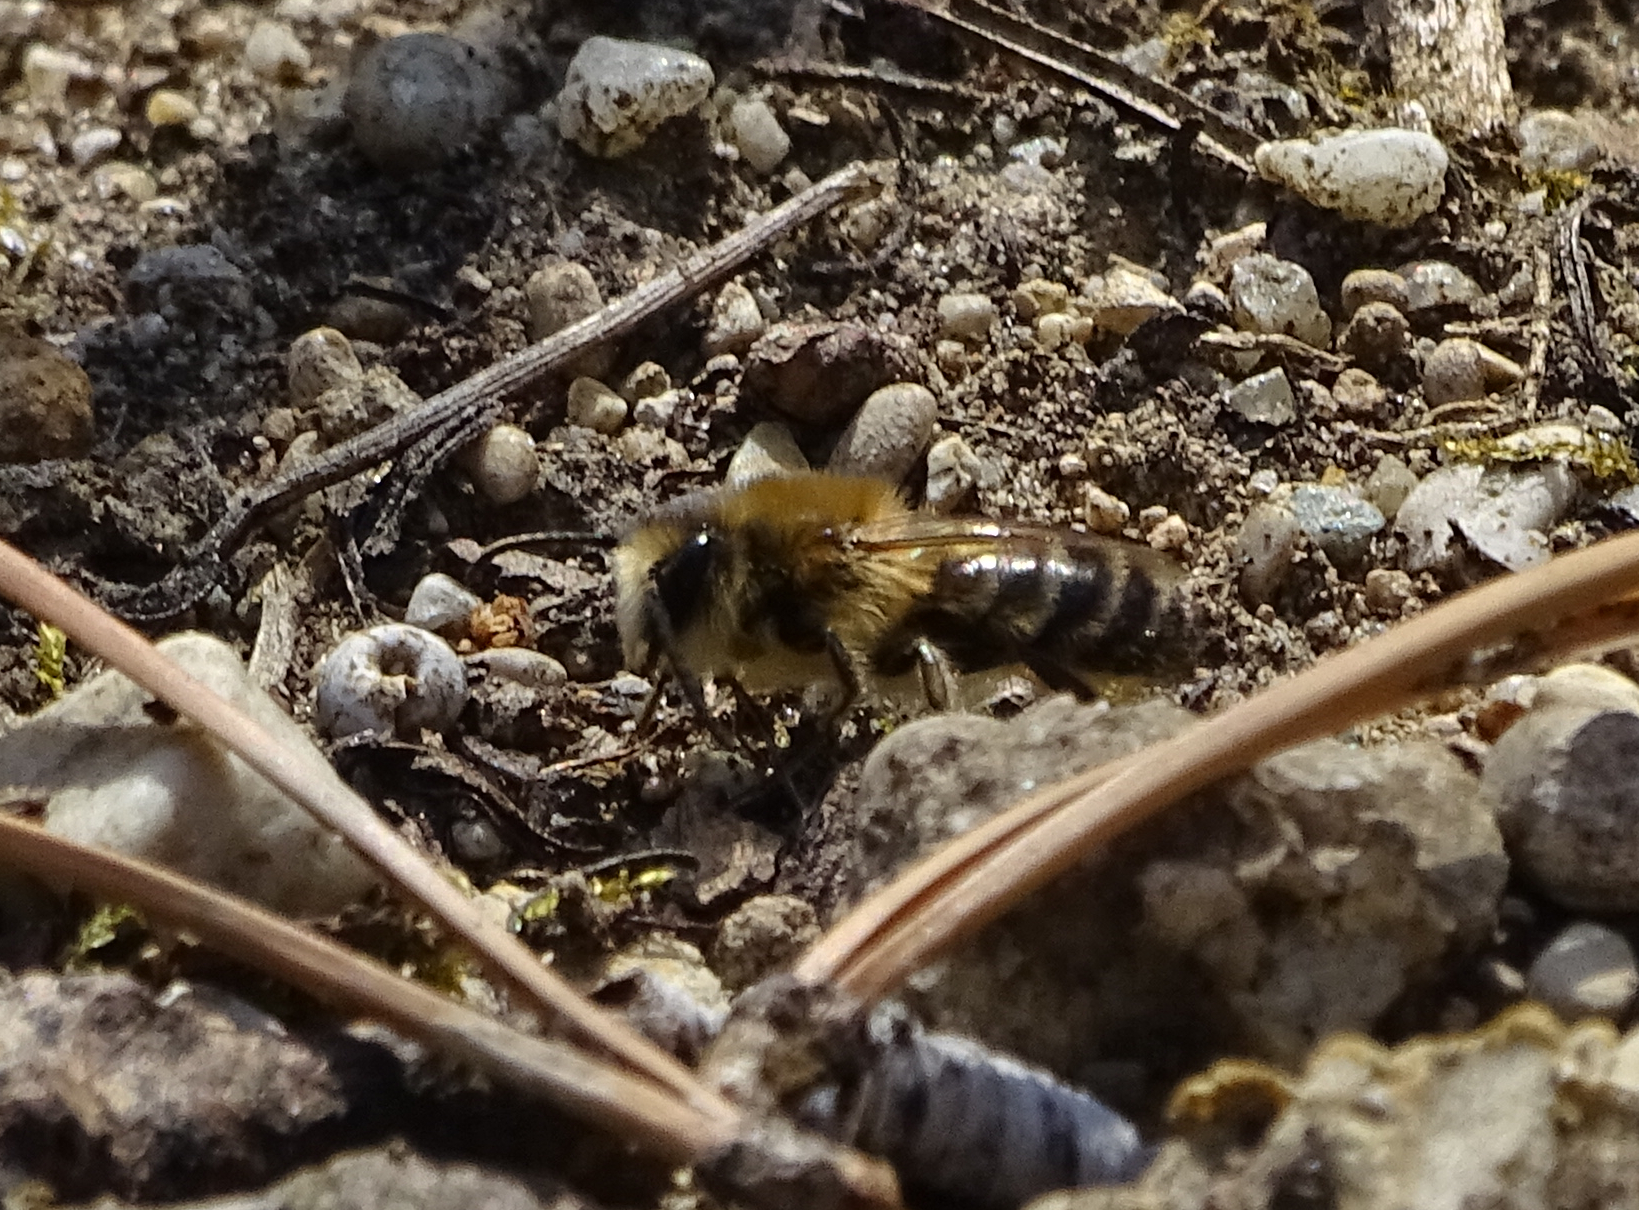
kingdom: Animalia
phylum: Arthropoda
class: Insecta
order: Hymenoptera
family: Colletidae
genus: Colletes
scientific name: Colletes cunicularius
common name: Early colletes
